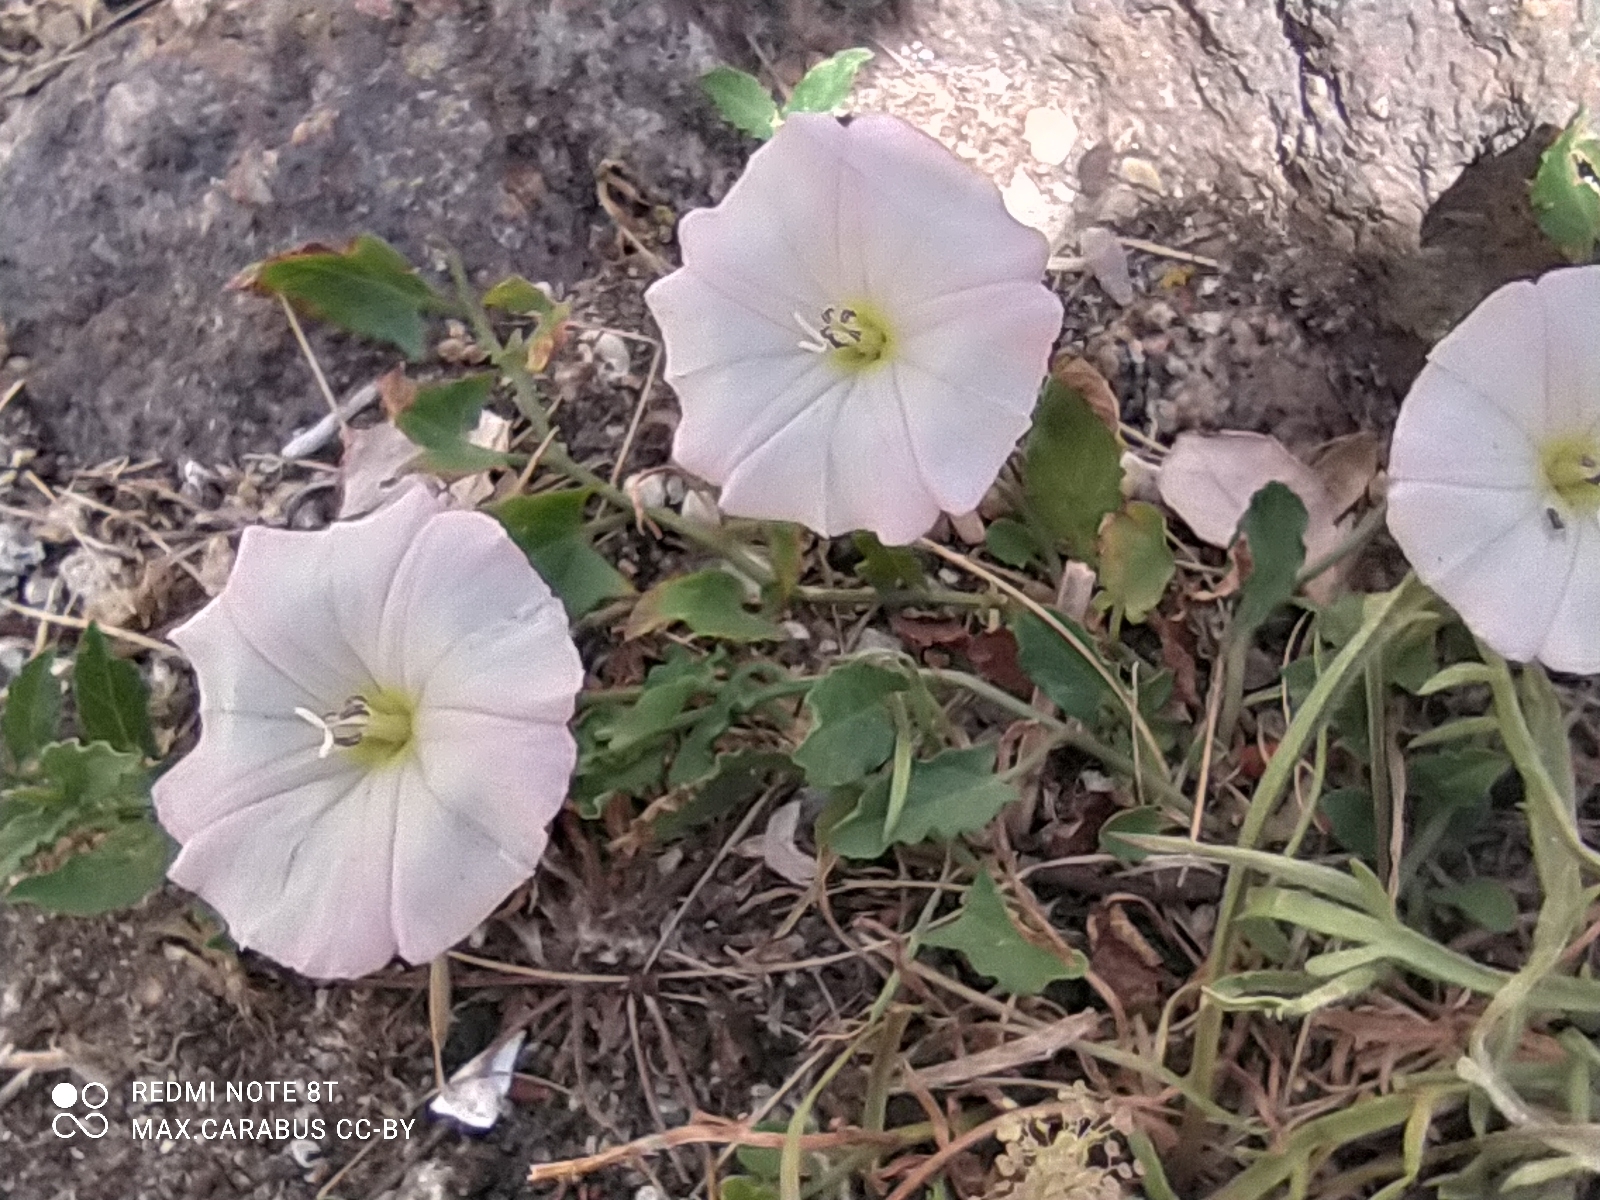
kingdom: Plantae
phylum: Tracheophyta
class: Magnoliopsida
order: Solanales
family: Convolvulaceae
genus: Convolvulus
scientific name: Convolvulus arvensis
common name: Field bindweed
